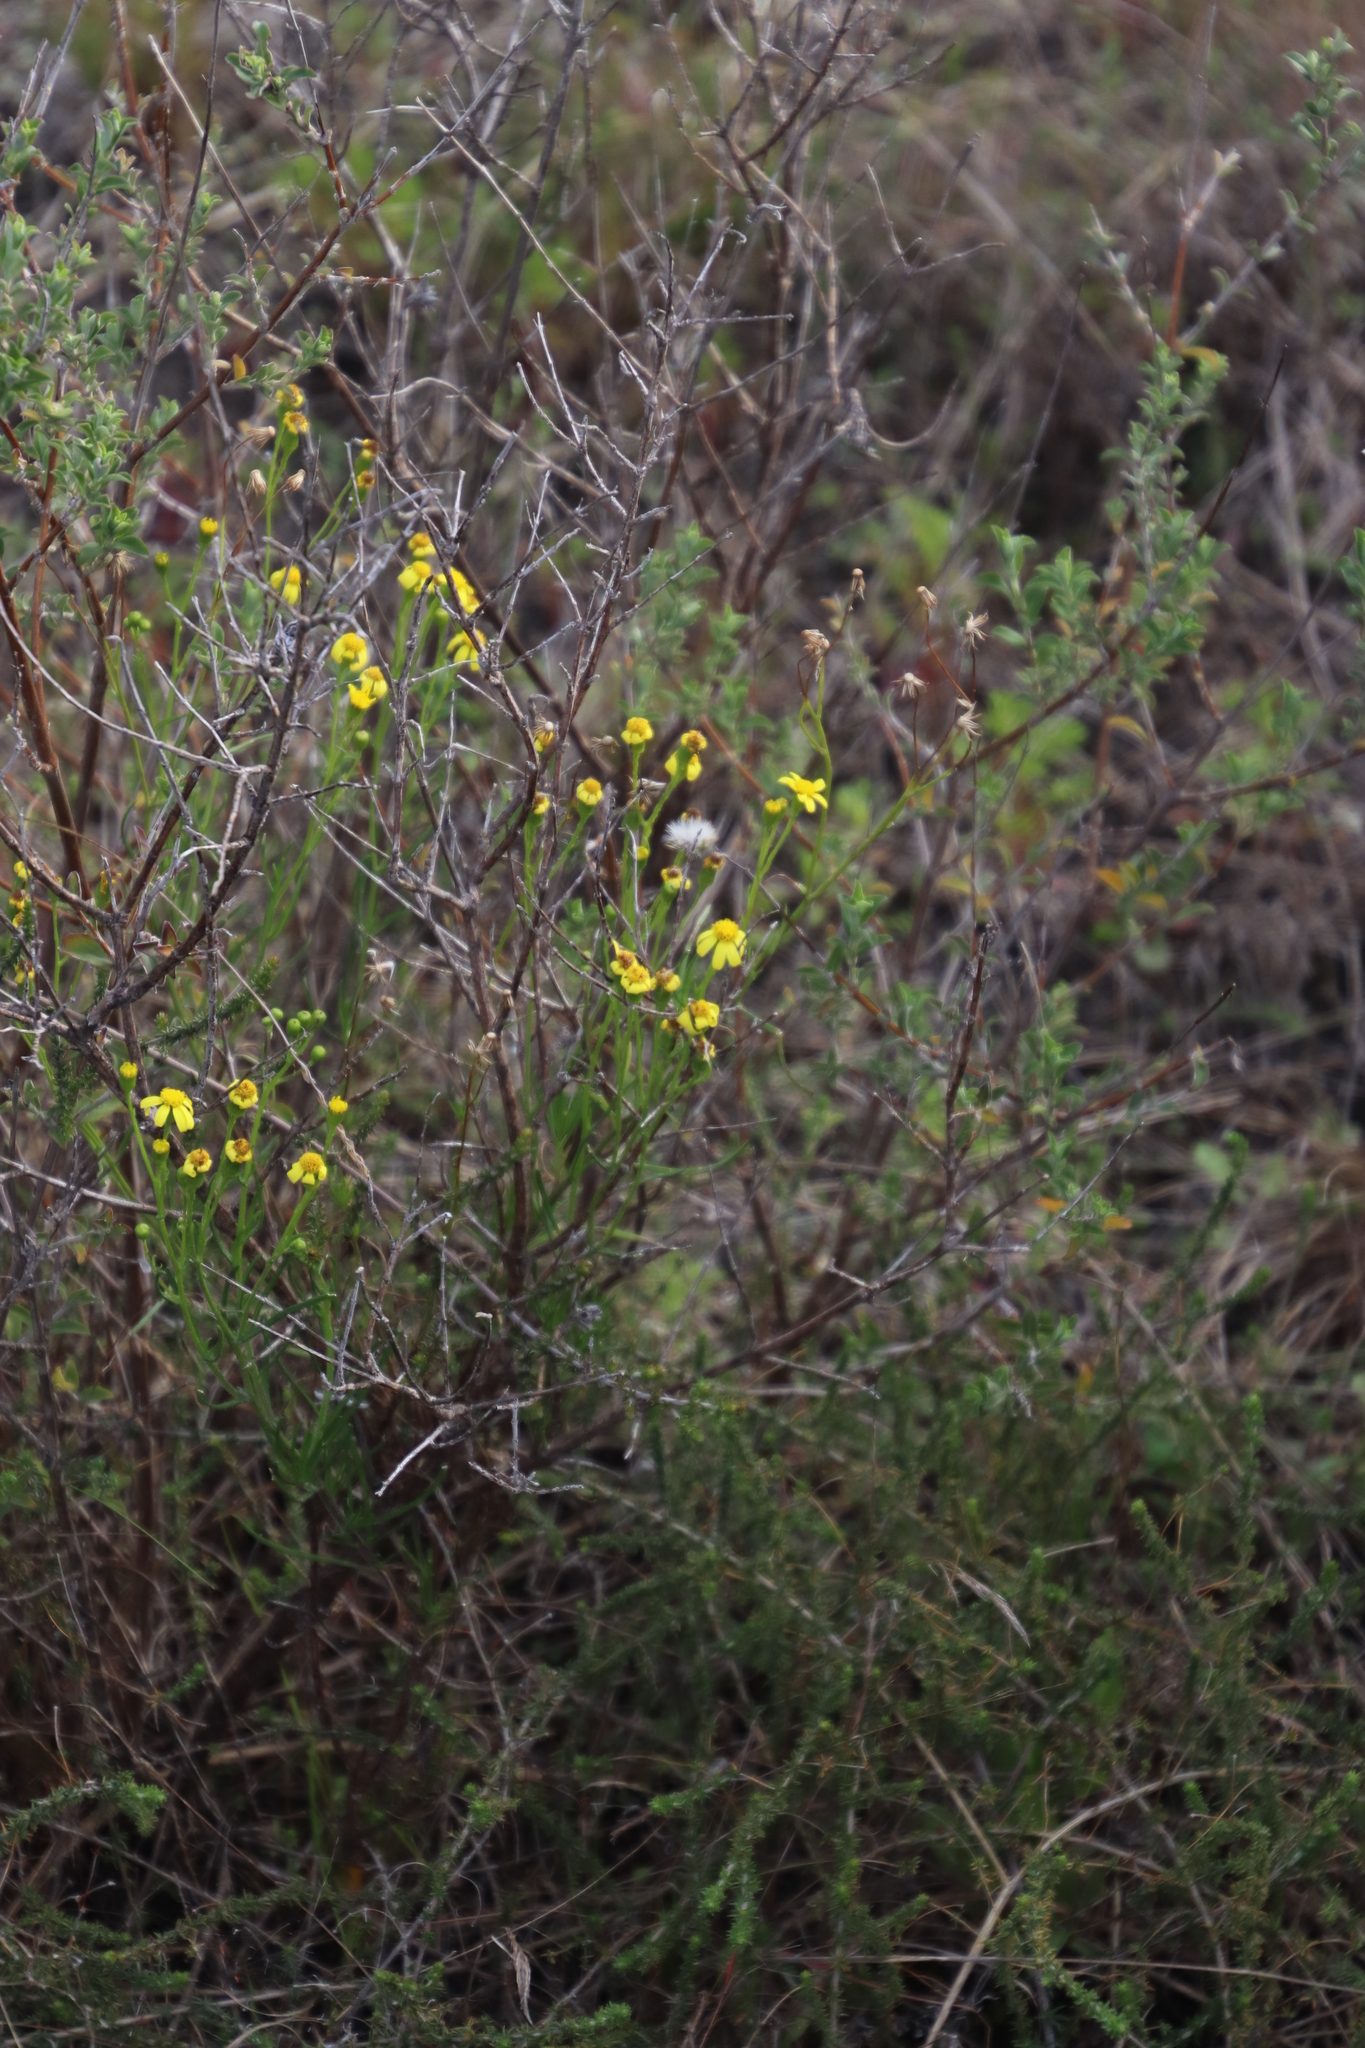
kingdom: Plantae
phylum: Tracheophyta
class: Magnoliopsida
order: Asterales
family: Asteraceae
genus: Senecio
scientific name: Senecio burchellii
